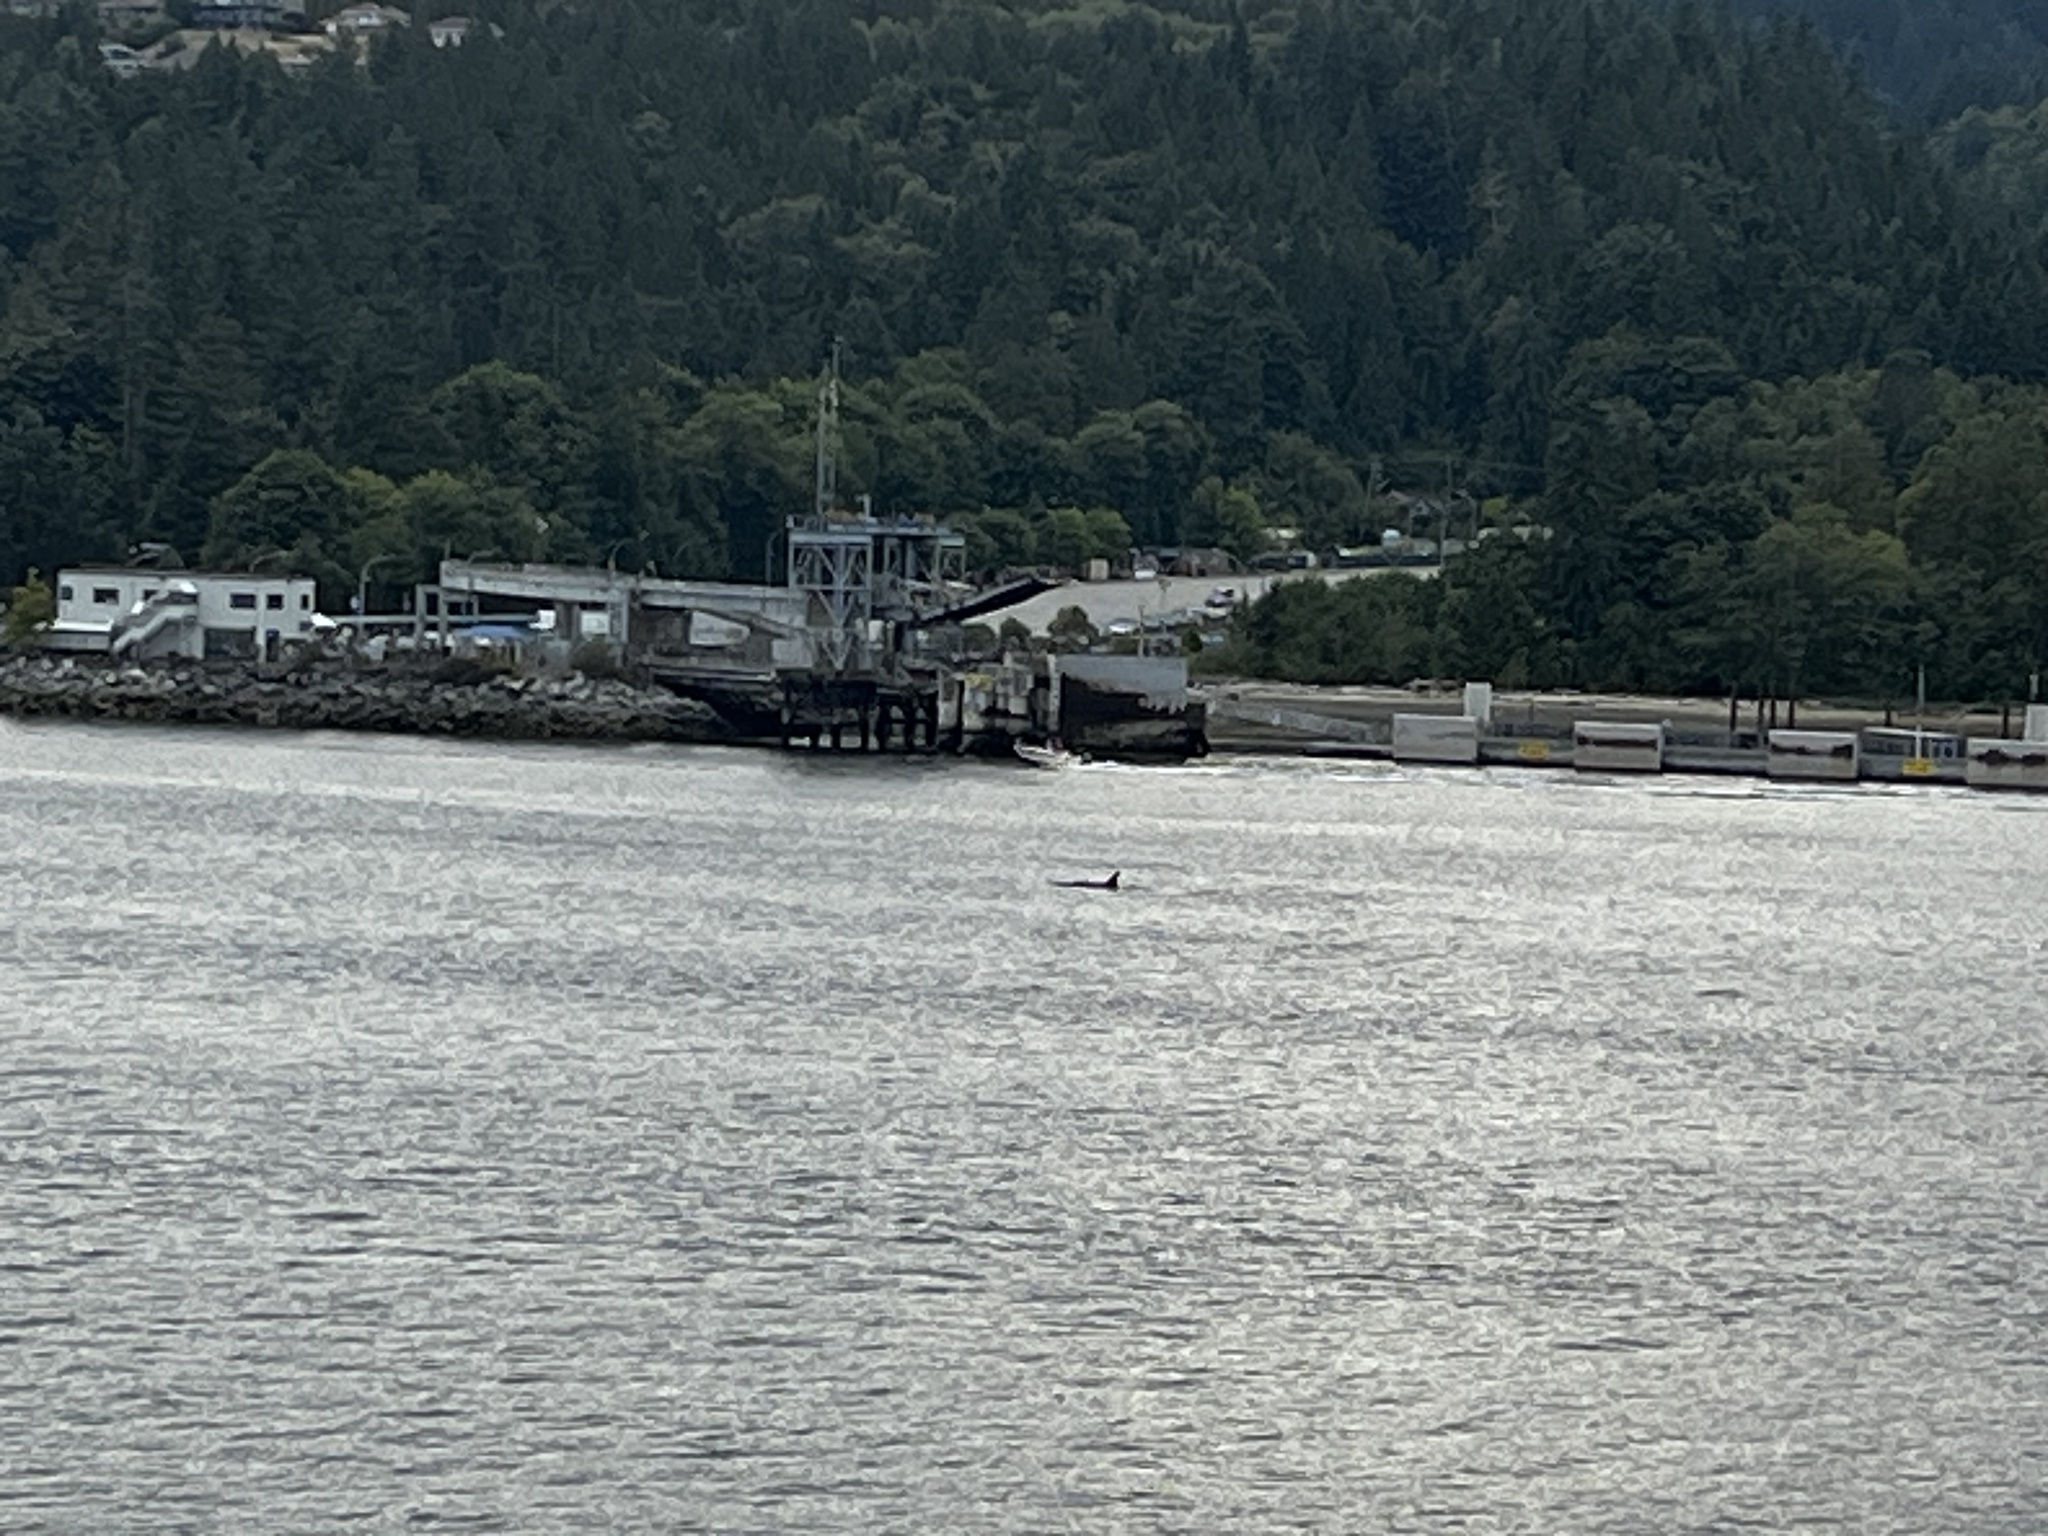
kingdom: Animalia
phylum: Chordata
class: Mammalia
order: Cetacea
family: Delphinidae
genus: Orcinus
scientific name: Orcinus orca
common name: Killer whale
